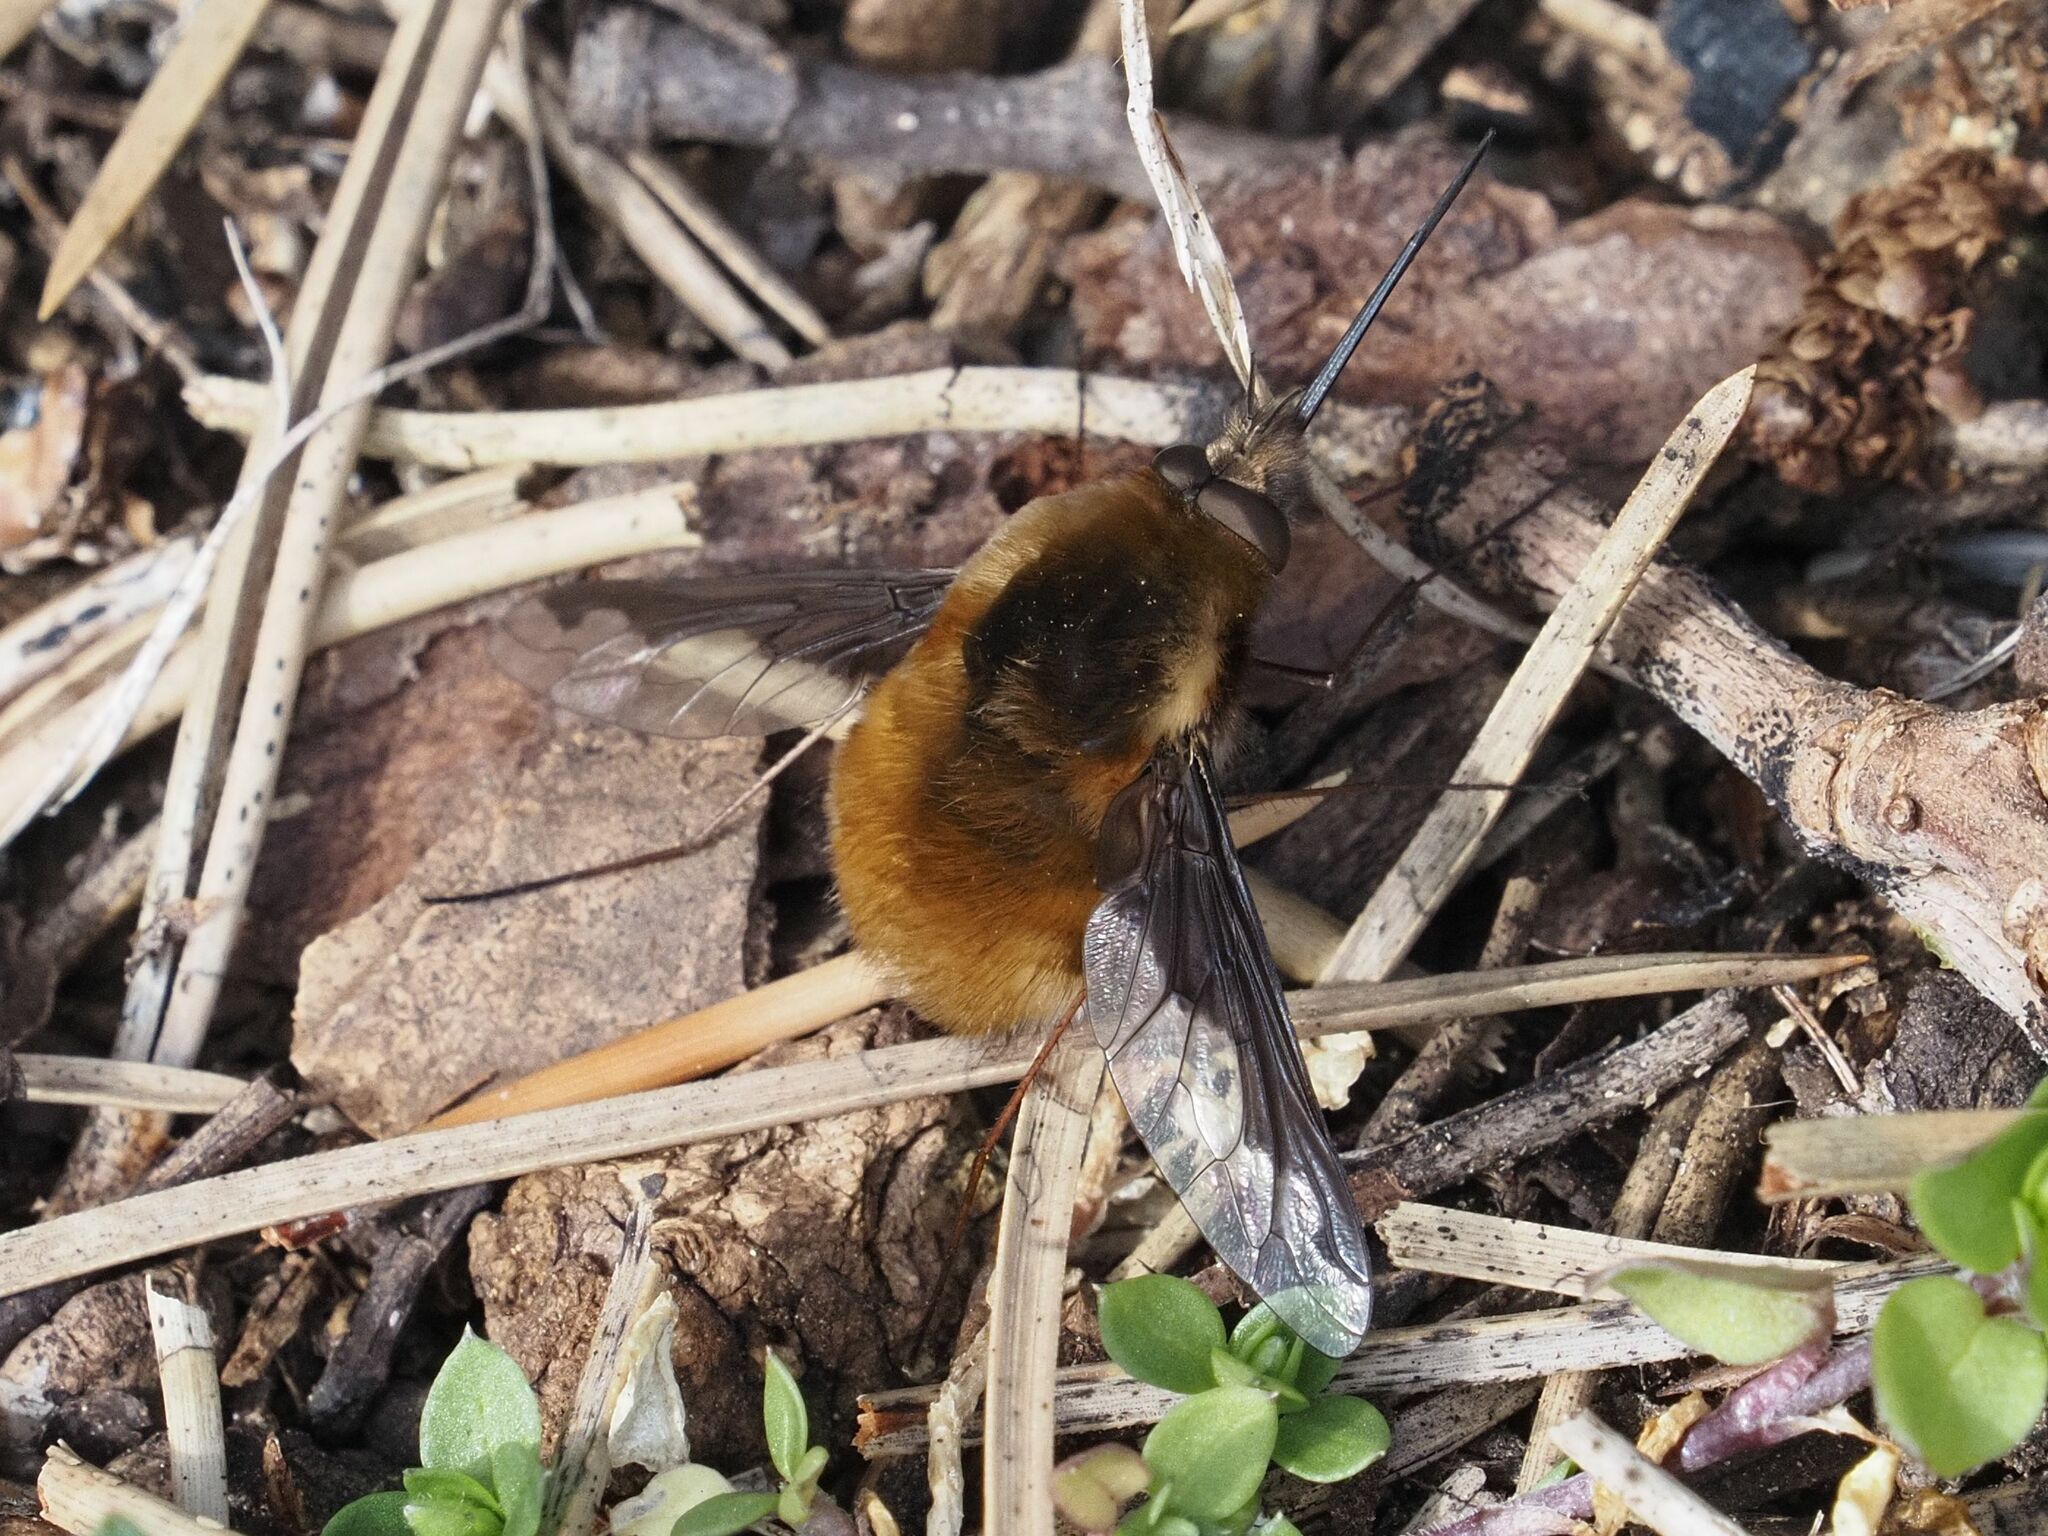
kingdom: Animalia
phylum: Arthropoda
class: Insecta
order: Diptera
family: Bombyliidae
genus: Bombylius
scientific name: Bombylius major
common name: Bee fly
